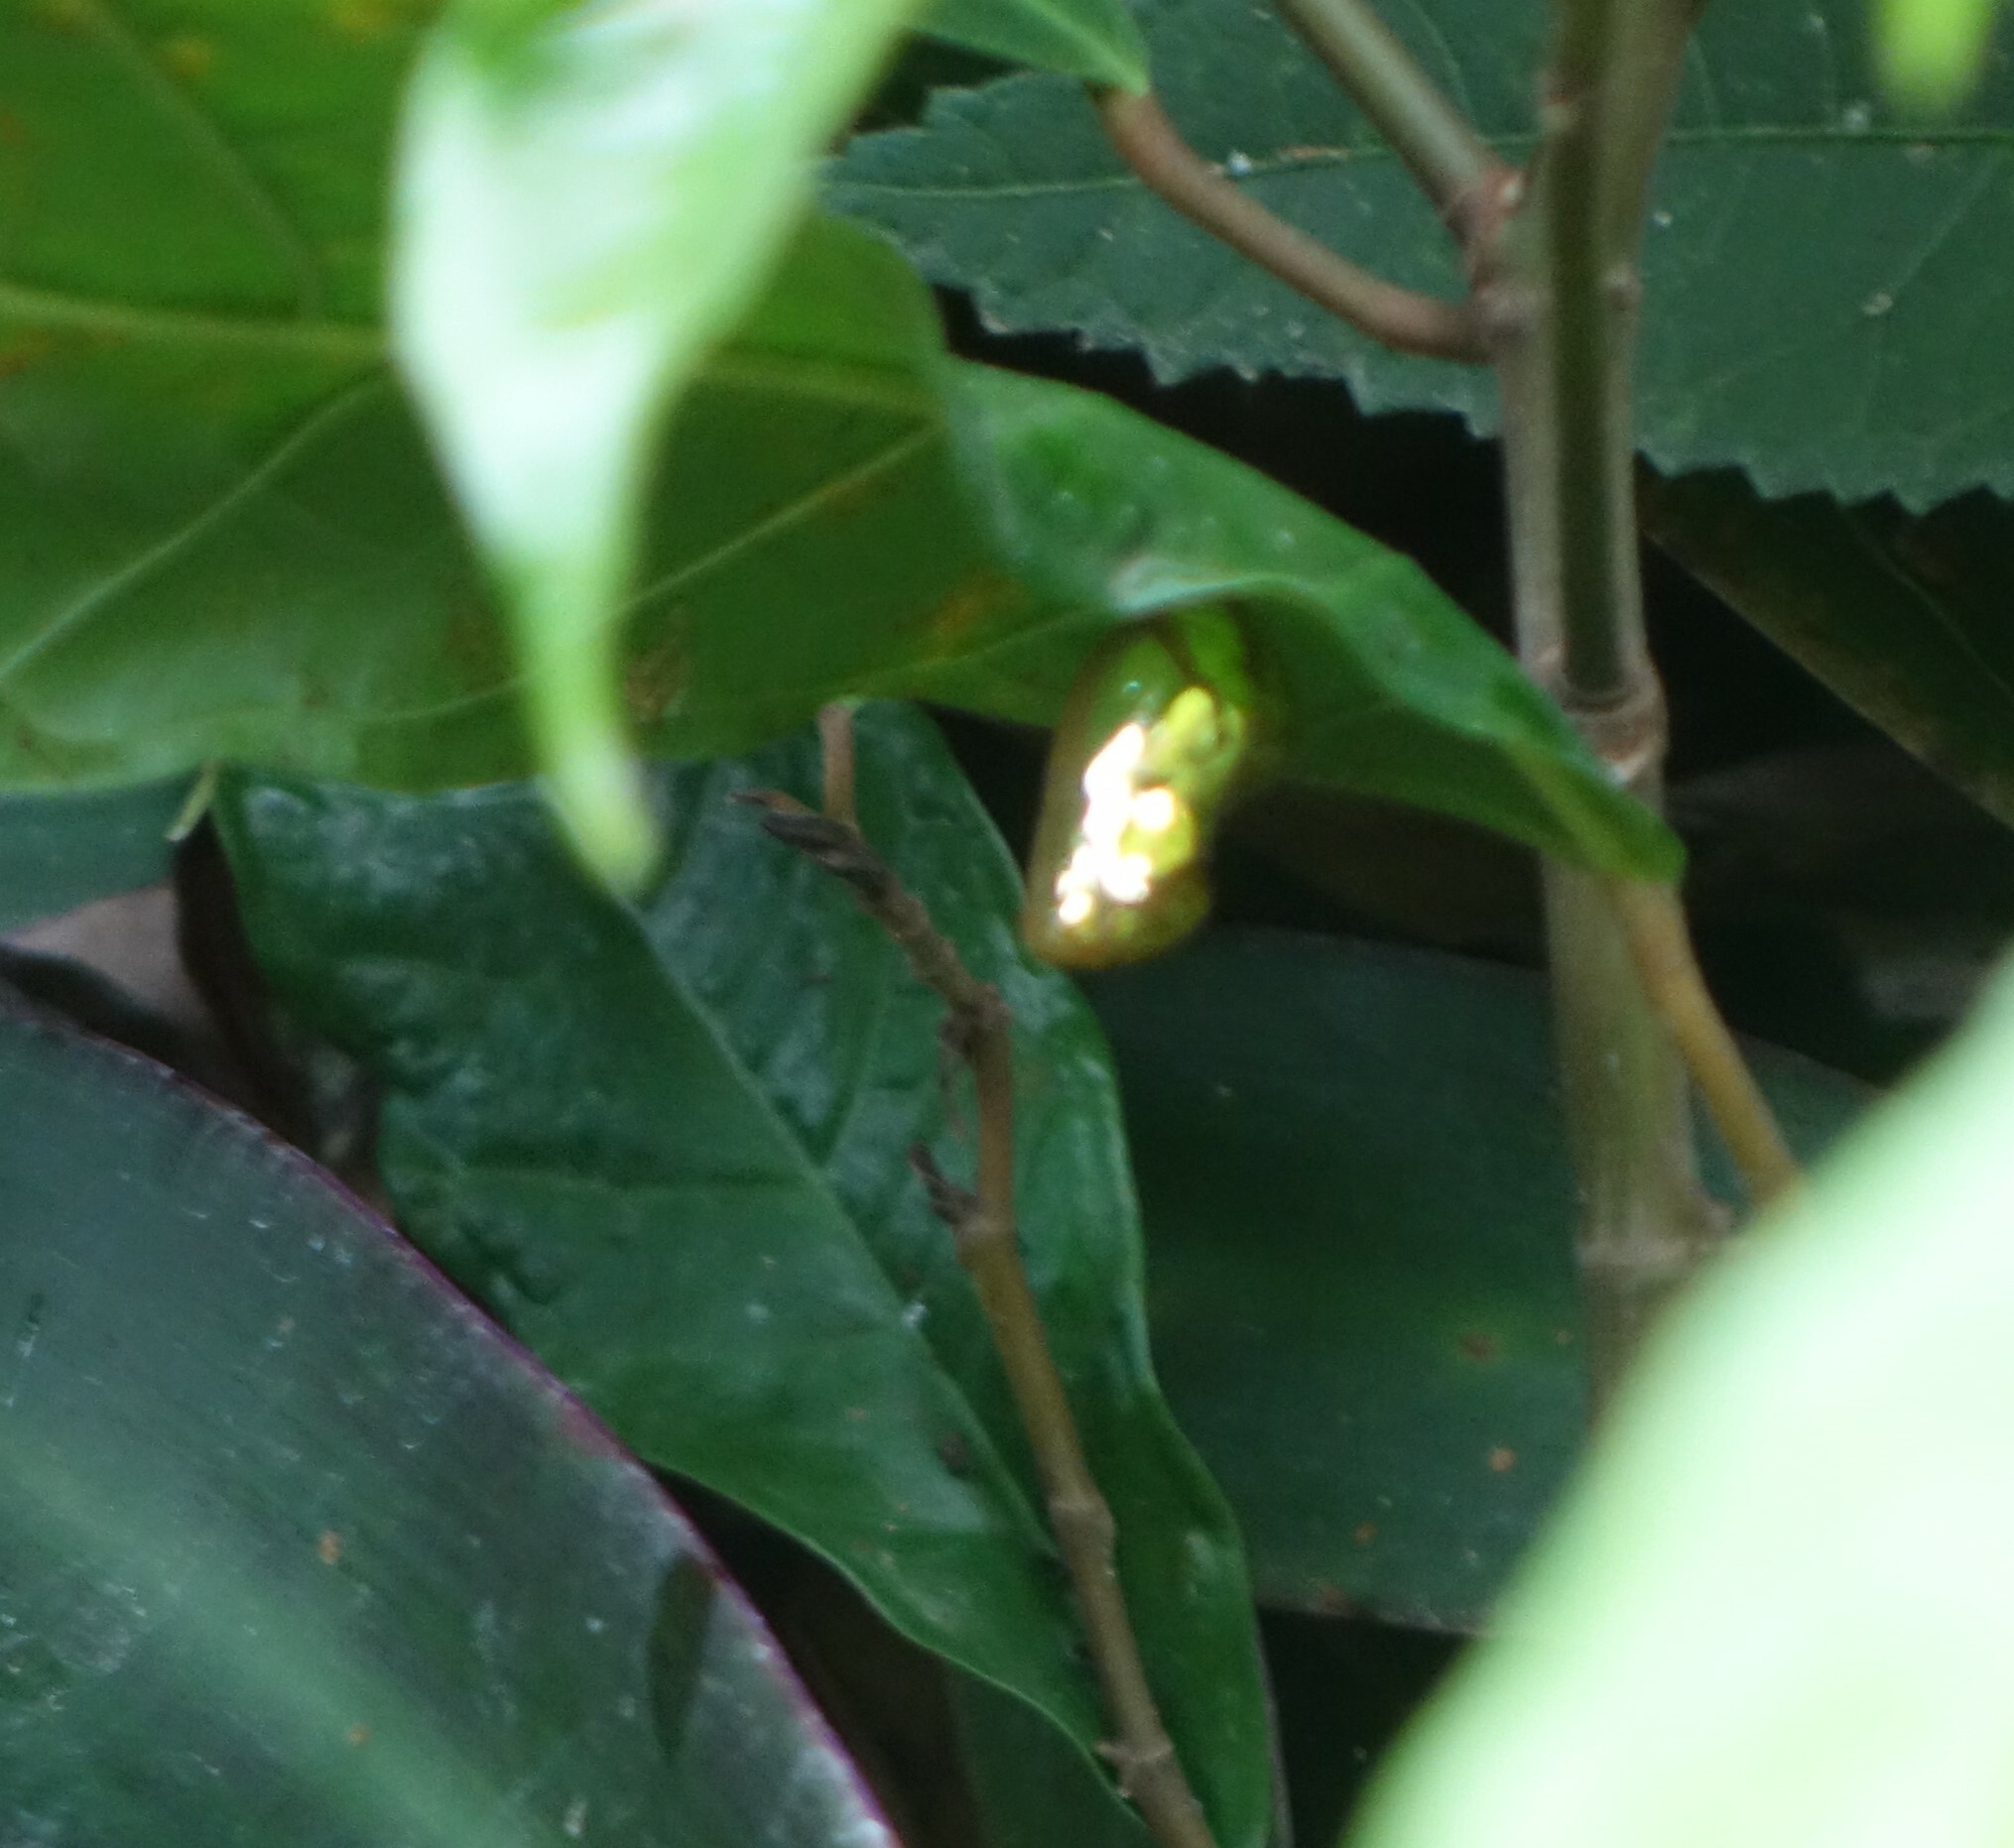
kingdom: Animalia
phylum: Arthropoda
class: Insecta
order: Lepidoptera
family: Nymphalidae
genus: Euploea
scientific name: Euploea core
